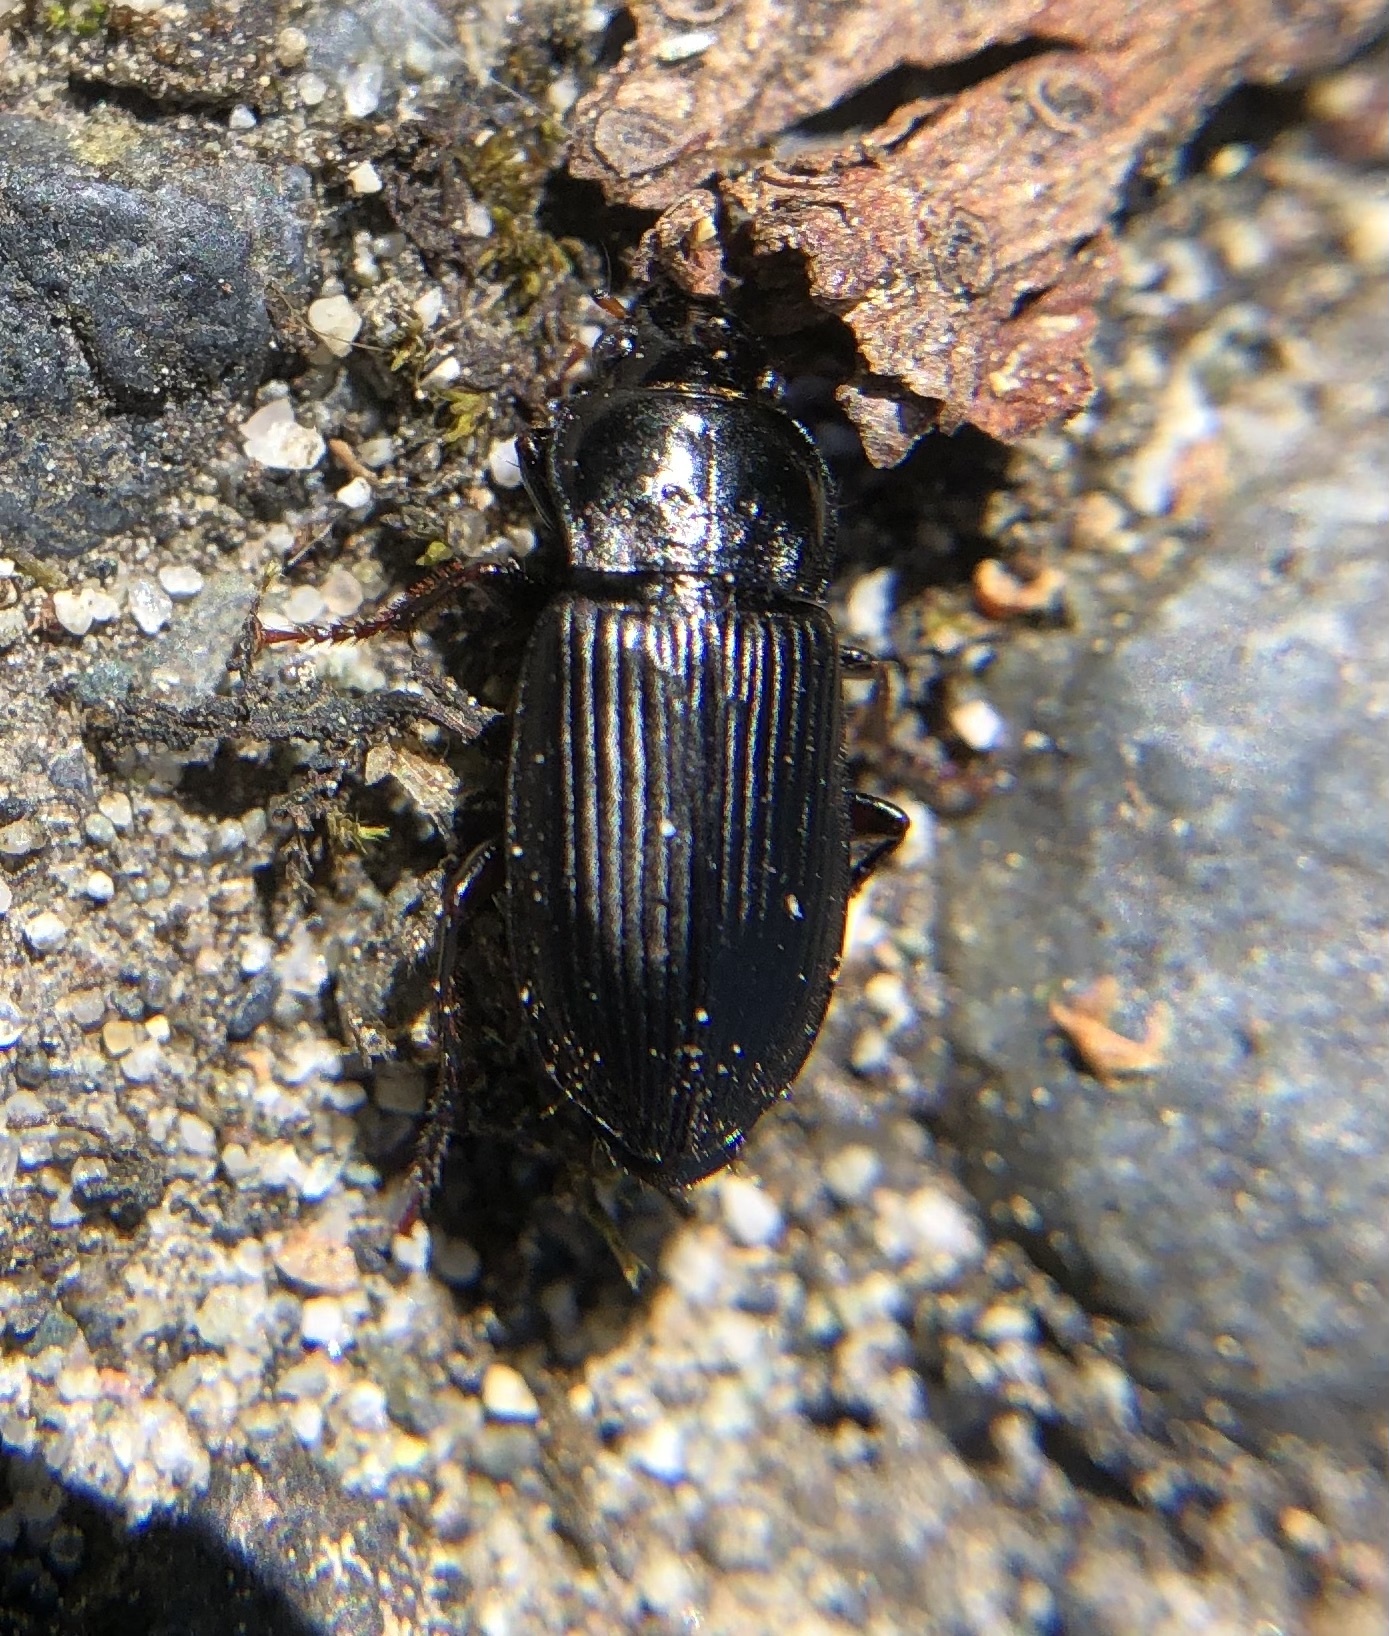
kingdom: Animalia
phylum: Arthropoda
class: Insecta
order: Coleoptera
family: Coccinellidae
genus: Coccinella
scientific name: Coccinella septempunctata
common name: Sevenspotted lady beetle
